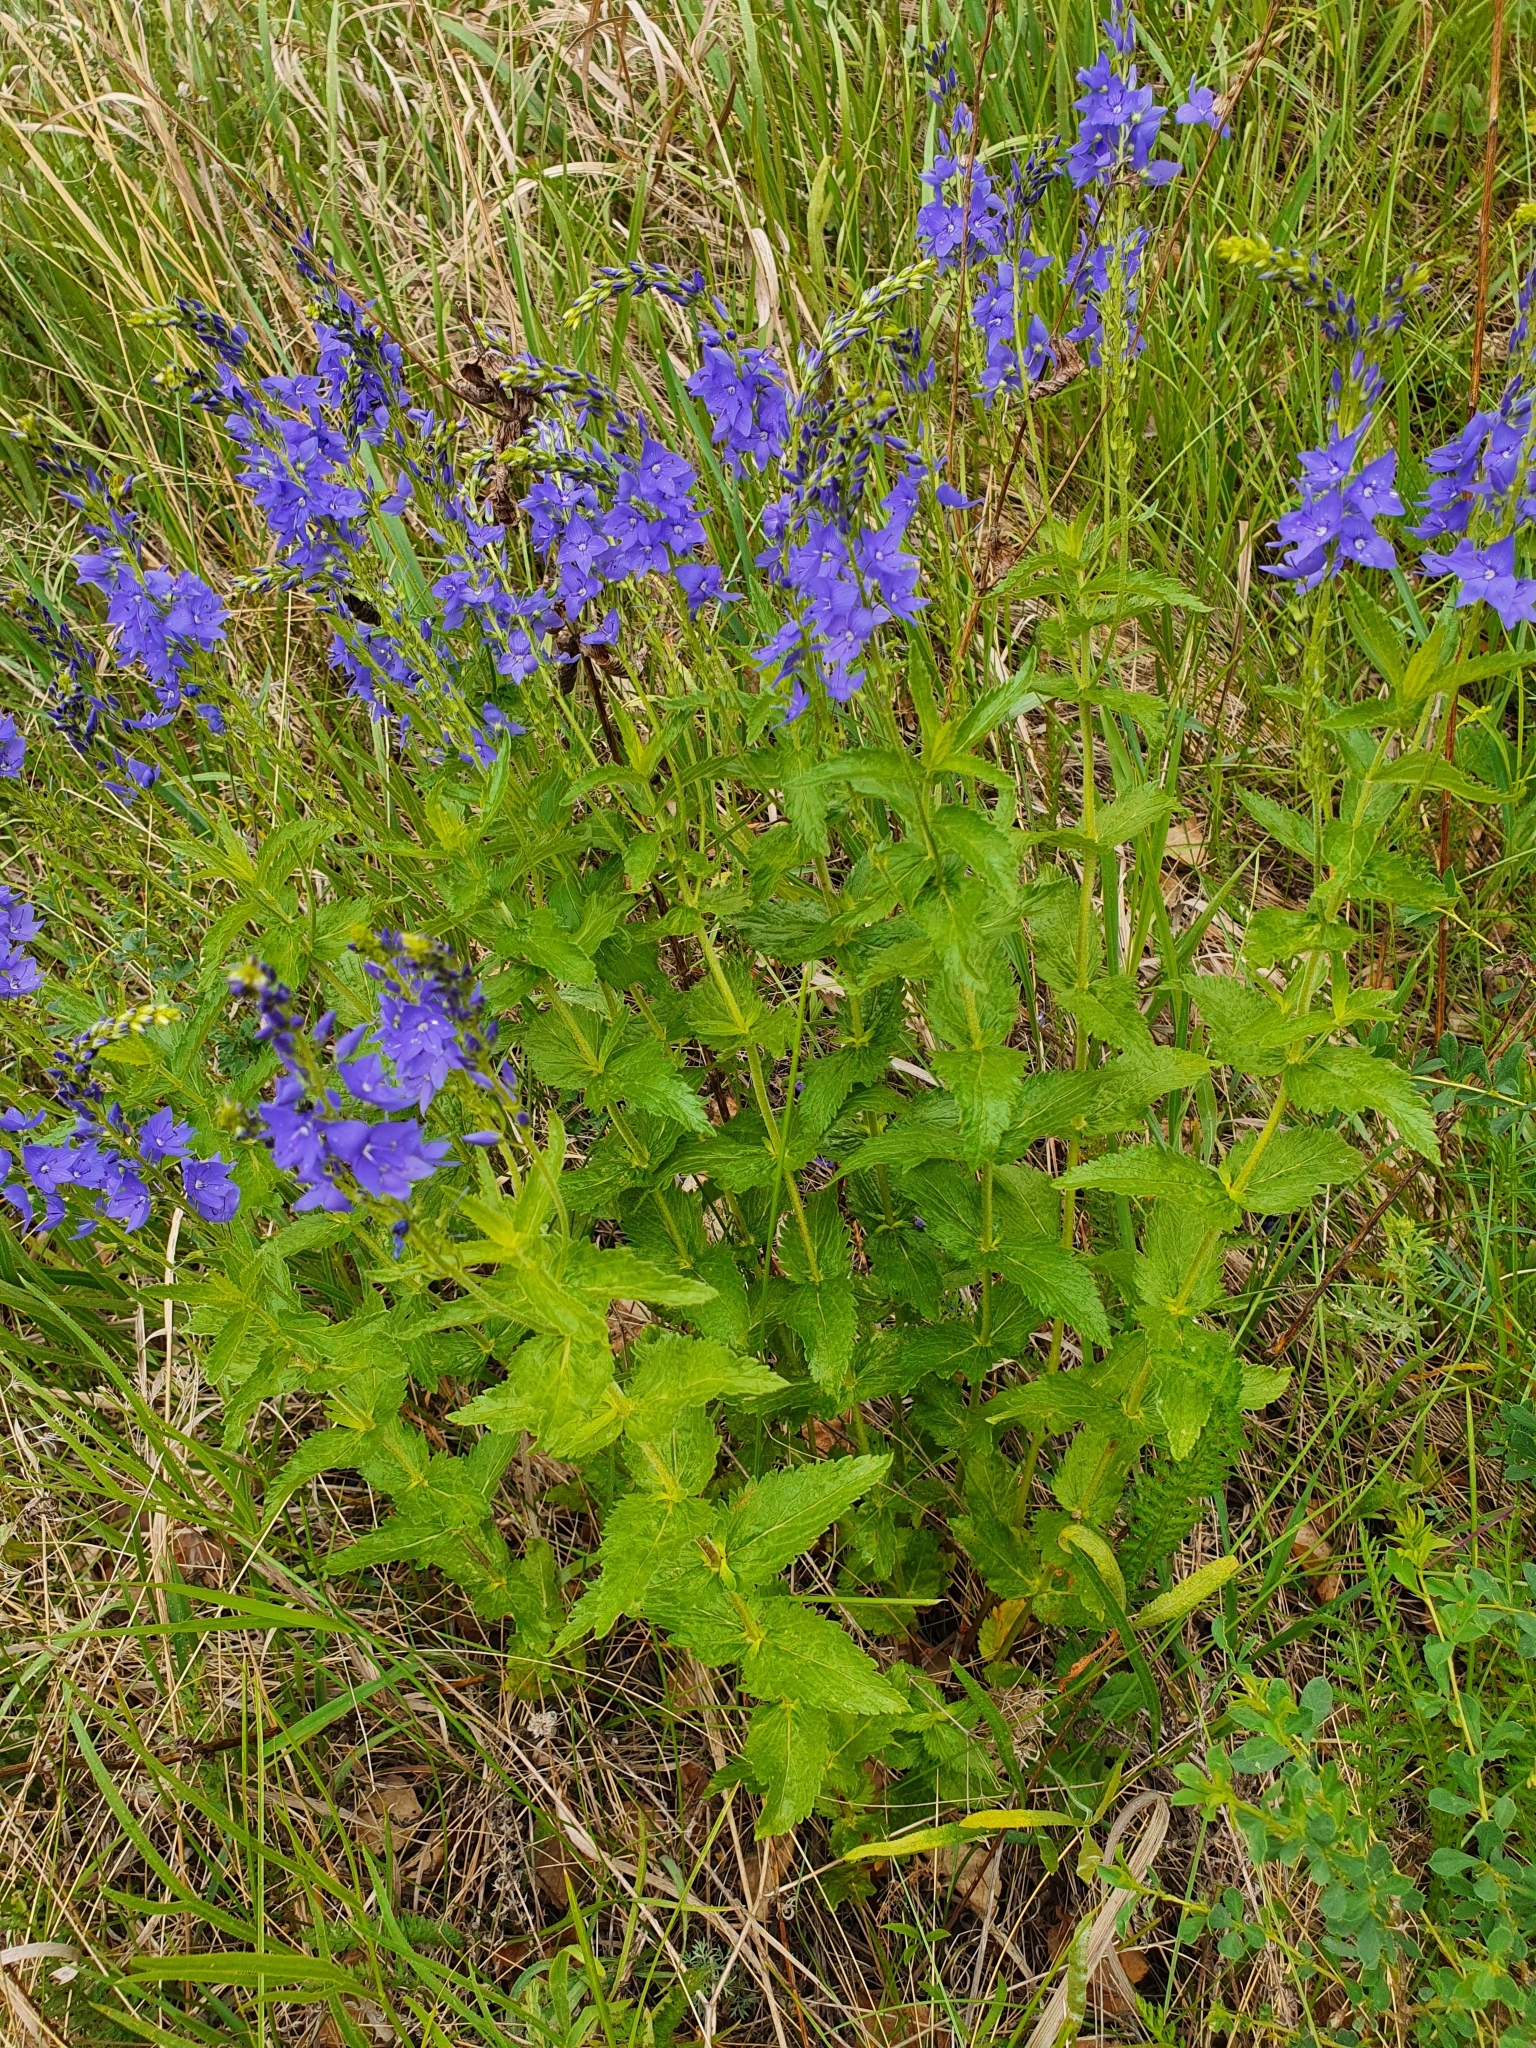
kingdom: Plantae
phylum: Tracheophyta
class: Magnoliopsida
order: Lamiales
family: Plantaginaceae
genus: Veronica
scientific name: Veronica teucrium
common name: Large speedwell
